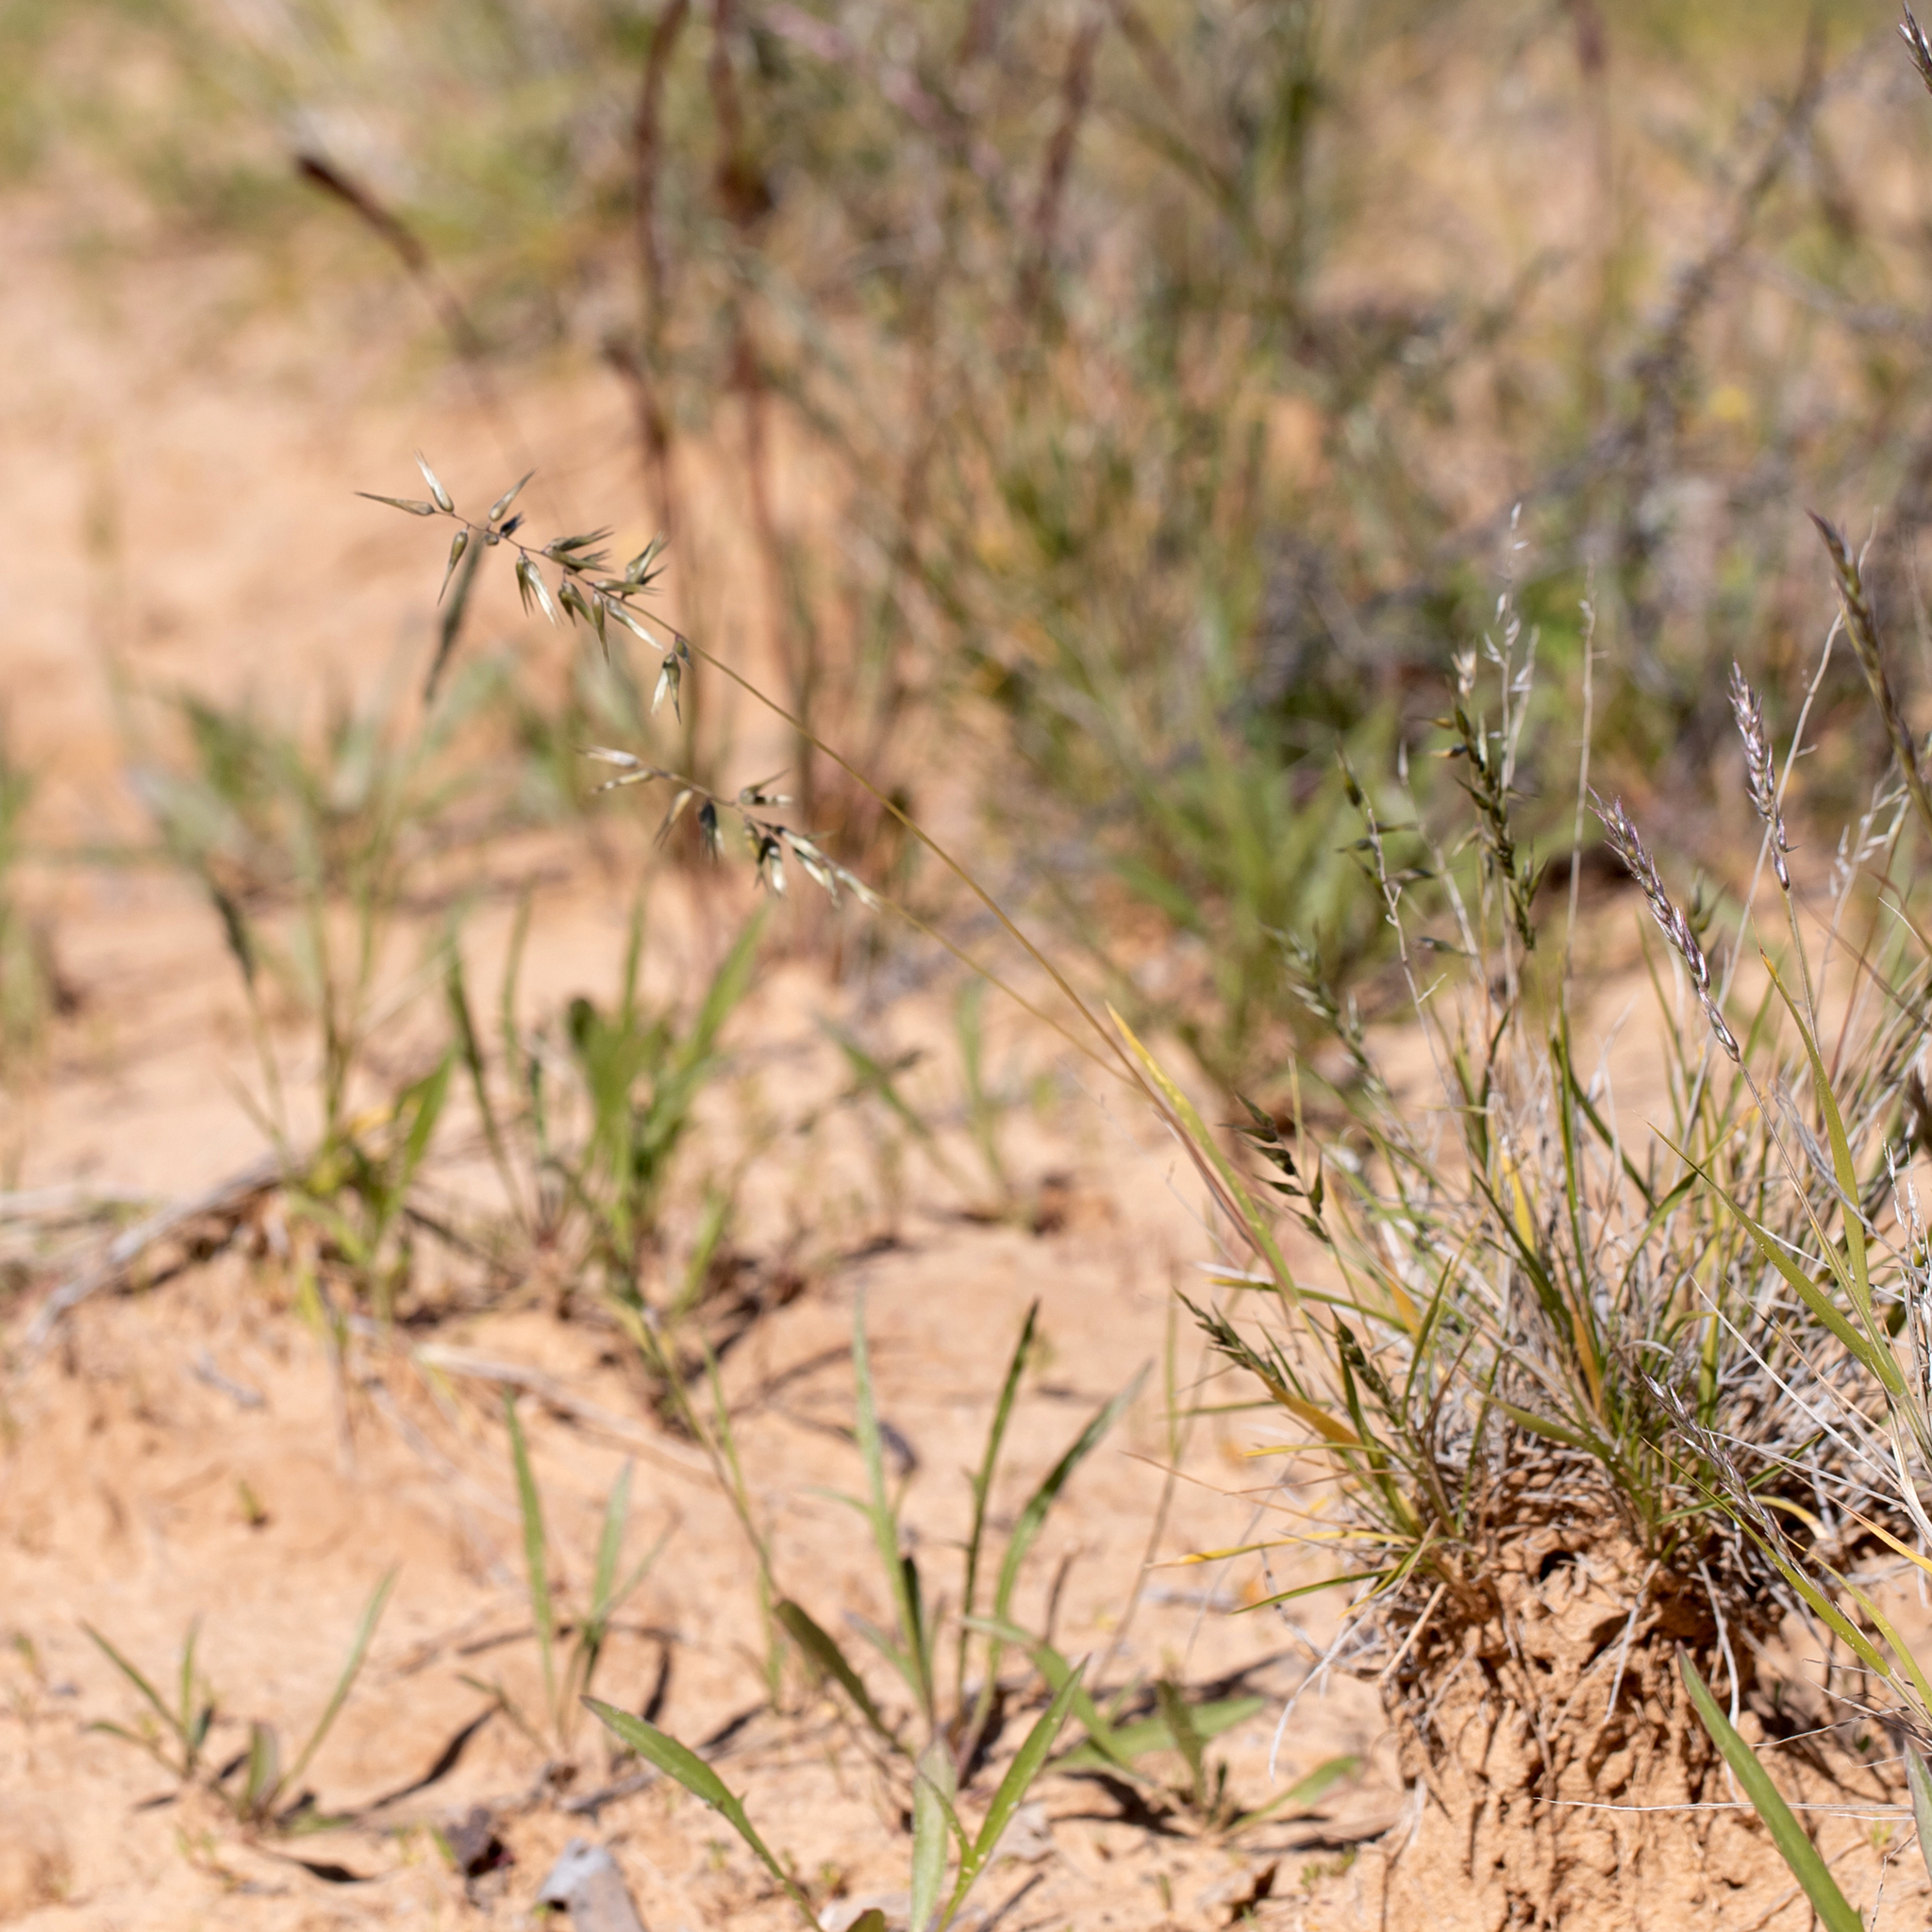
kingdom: Plantae
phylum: Tracheophyta
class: Liliopsida
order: Poales
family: Poaceae
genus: Enneapogon
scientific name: Enneapogon avenaceus
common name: Hairy oat grass
